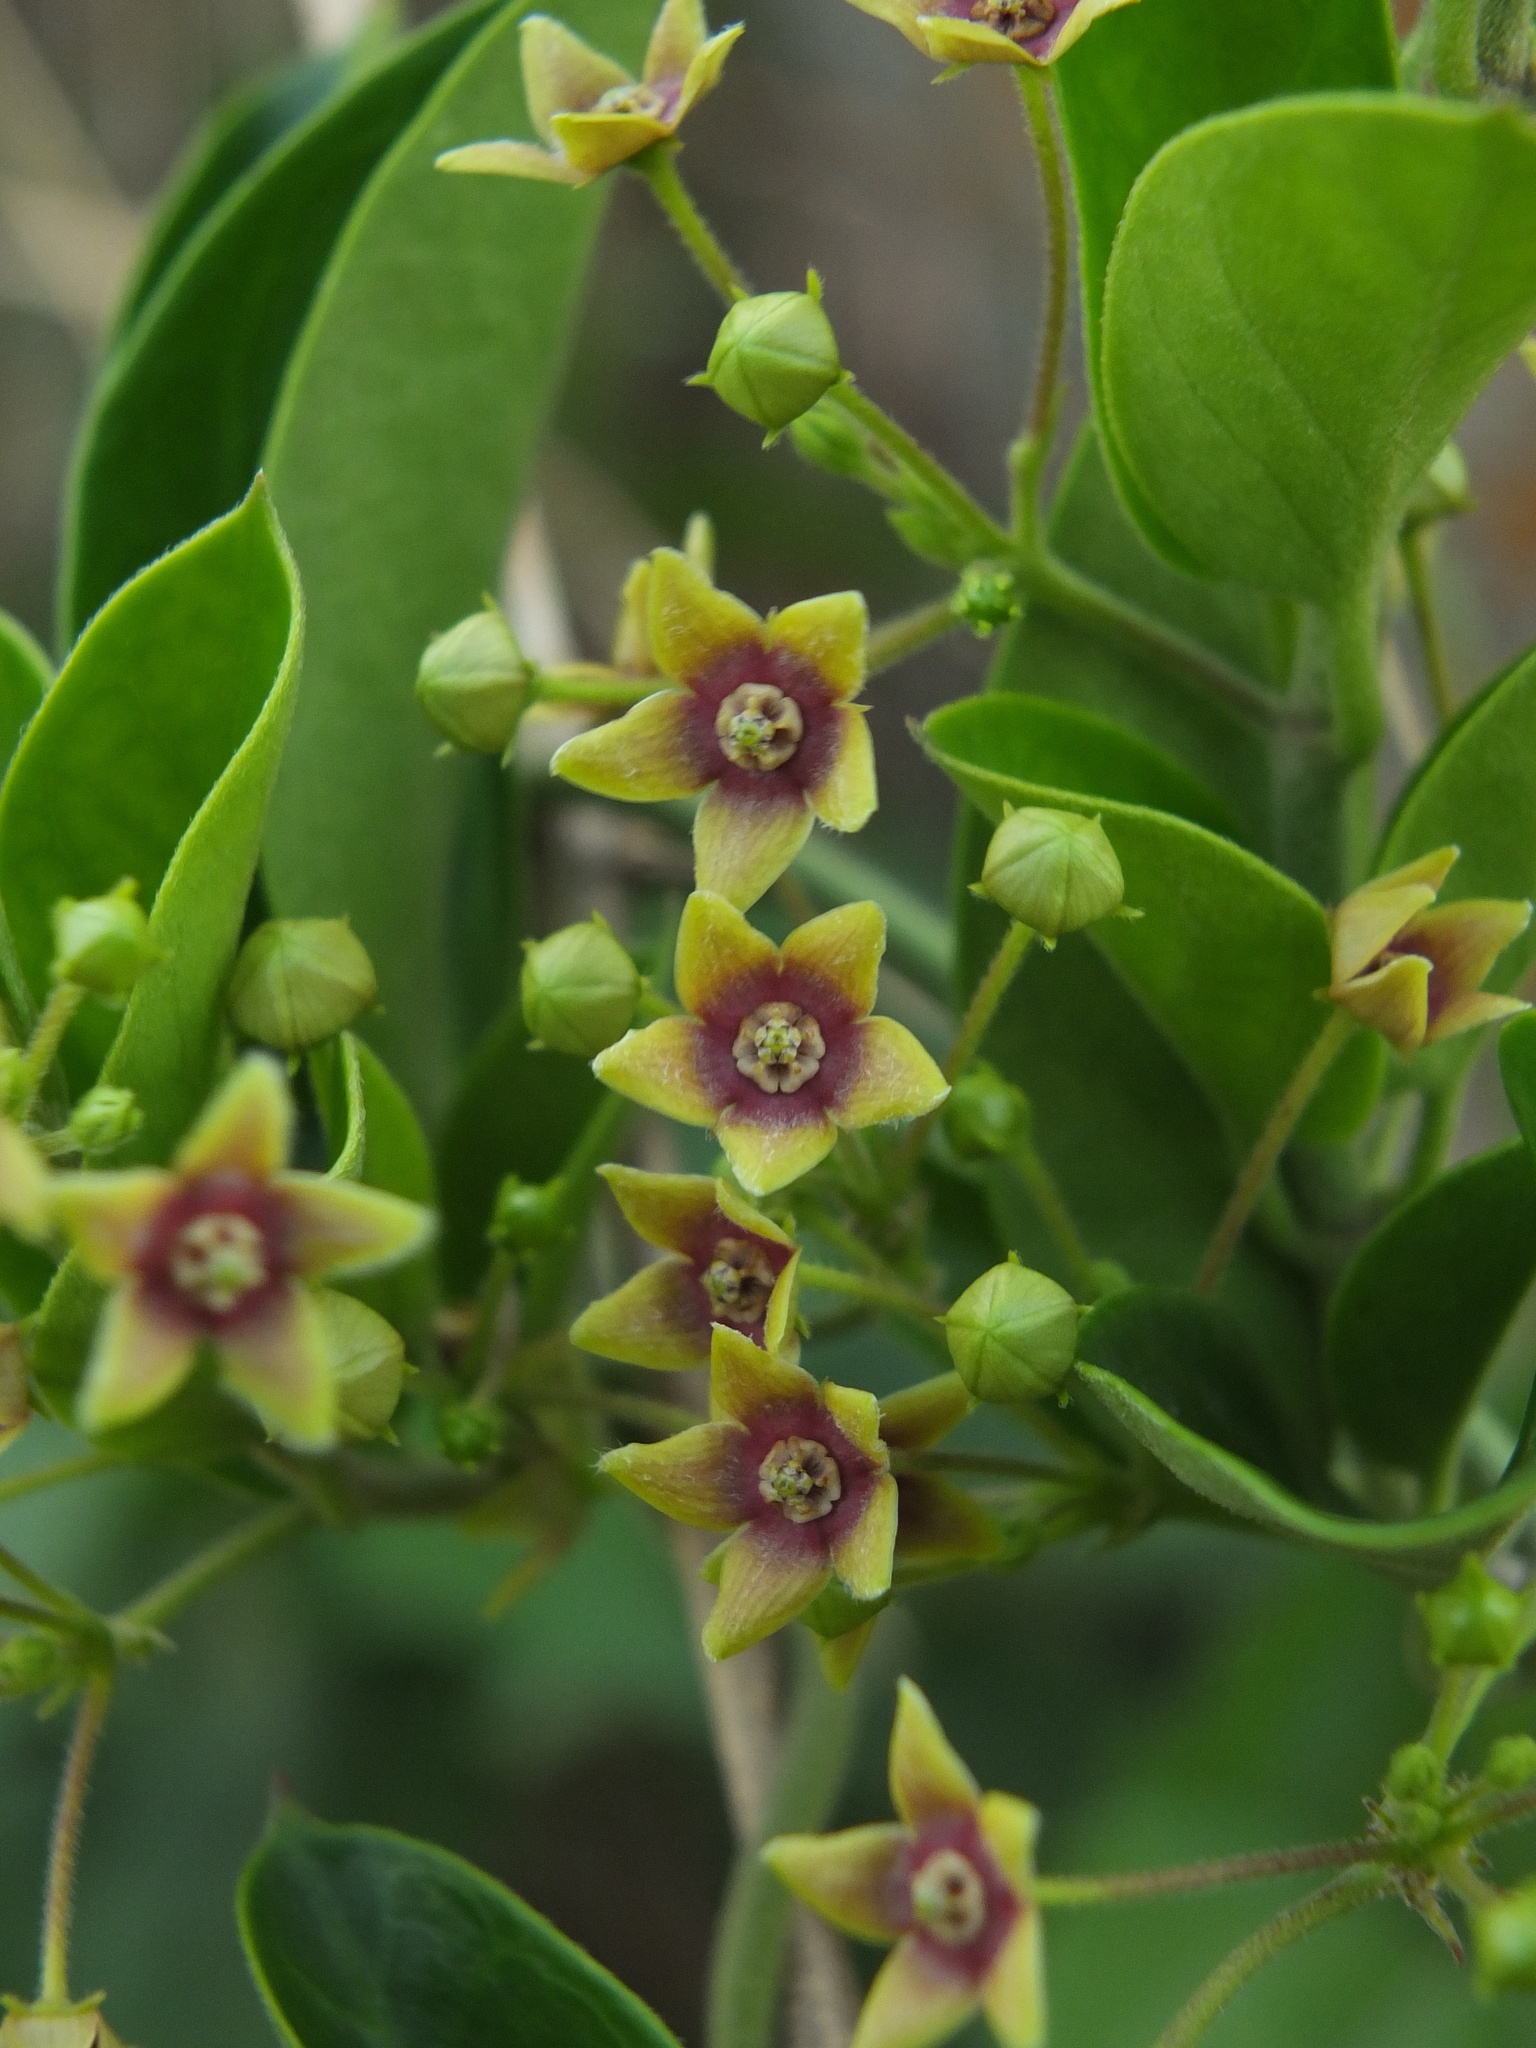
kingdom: Plantae
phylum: Tracheophyta
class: Magnoliopsida
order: Gentianales
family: Apocynaceae
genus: Vincetoxicum
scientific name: Vincetoxicum indicum
